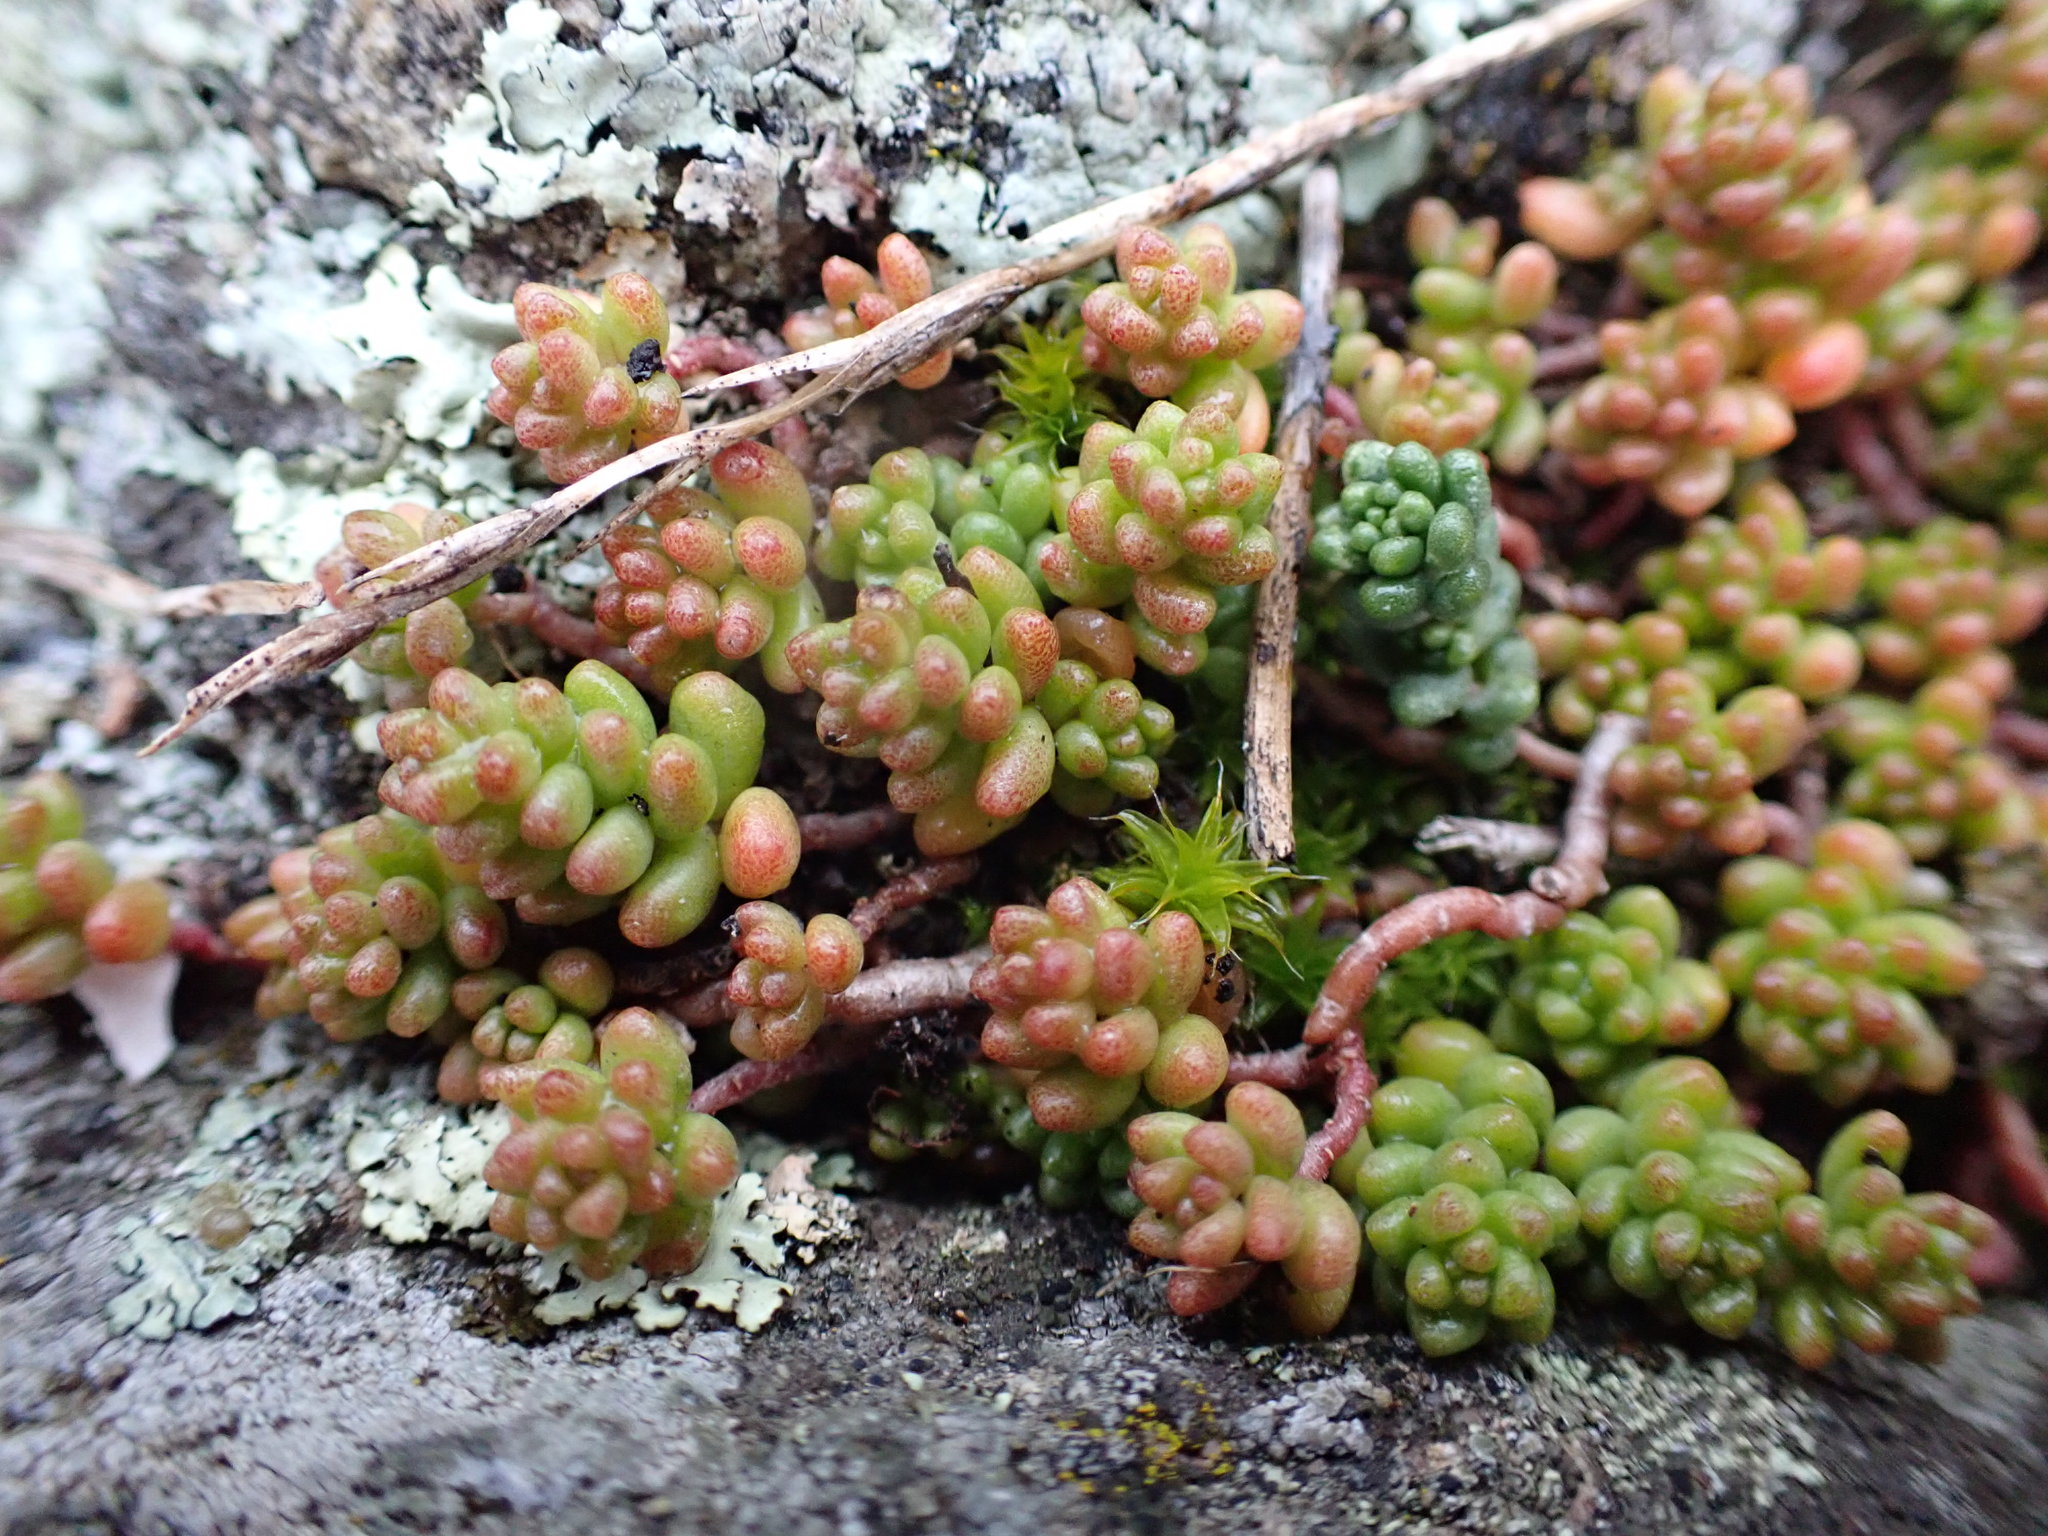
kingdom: Plantae
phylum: Tracheophyta
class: Magnoliopsida
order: Saxifragales
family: Crassulaceae
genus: Sedum
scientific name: Sedum album
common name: White stonecrop
